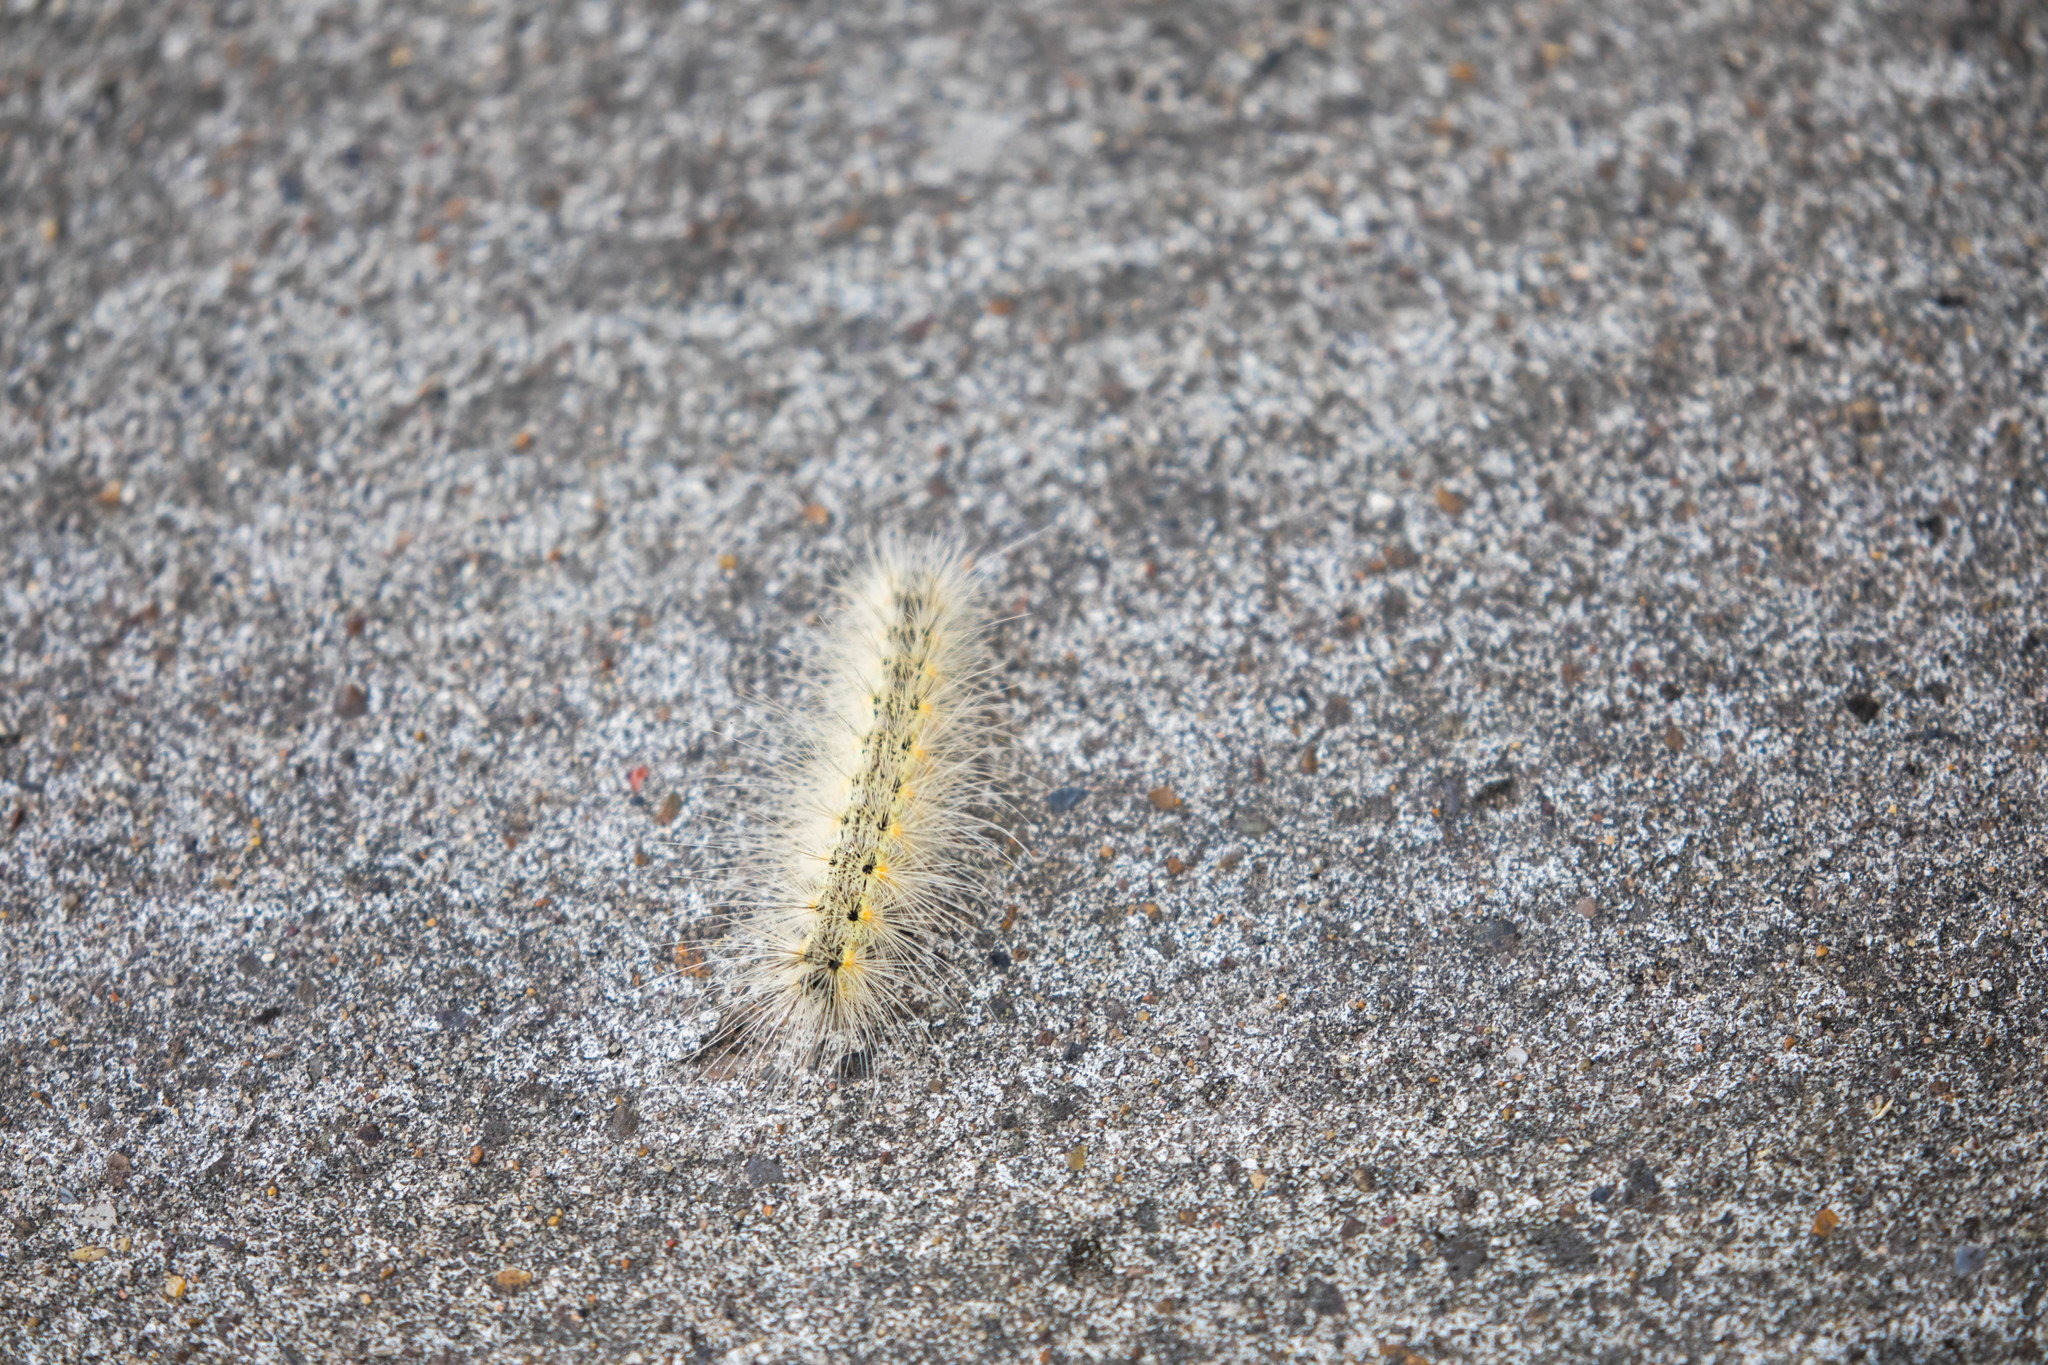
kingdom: Animalia
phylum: Arthropoda
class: Insecta
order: Lepidoptera
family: Erebidae
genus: Hyphantria
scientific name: Hyphantria cunea
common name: American white moth
